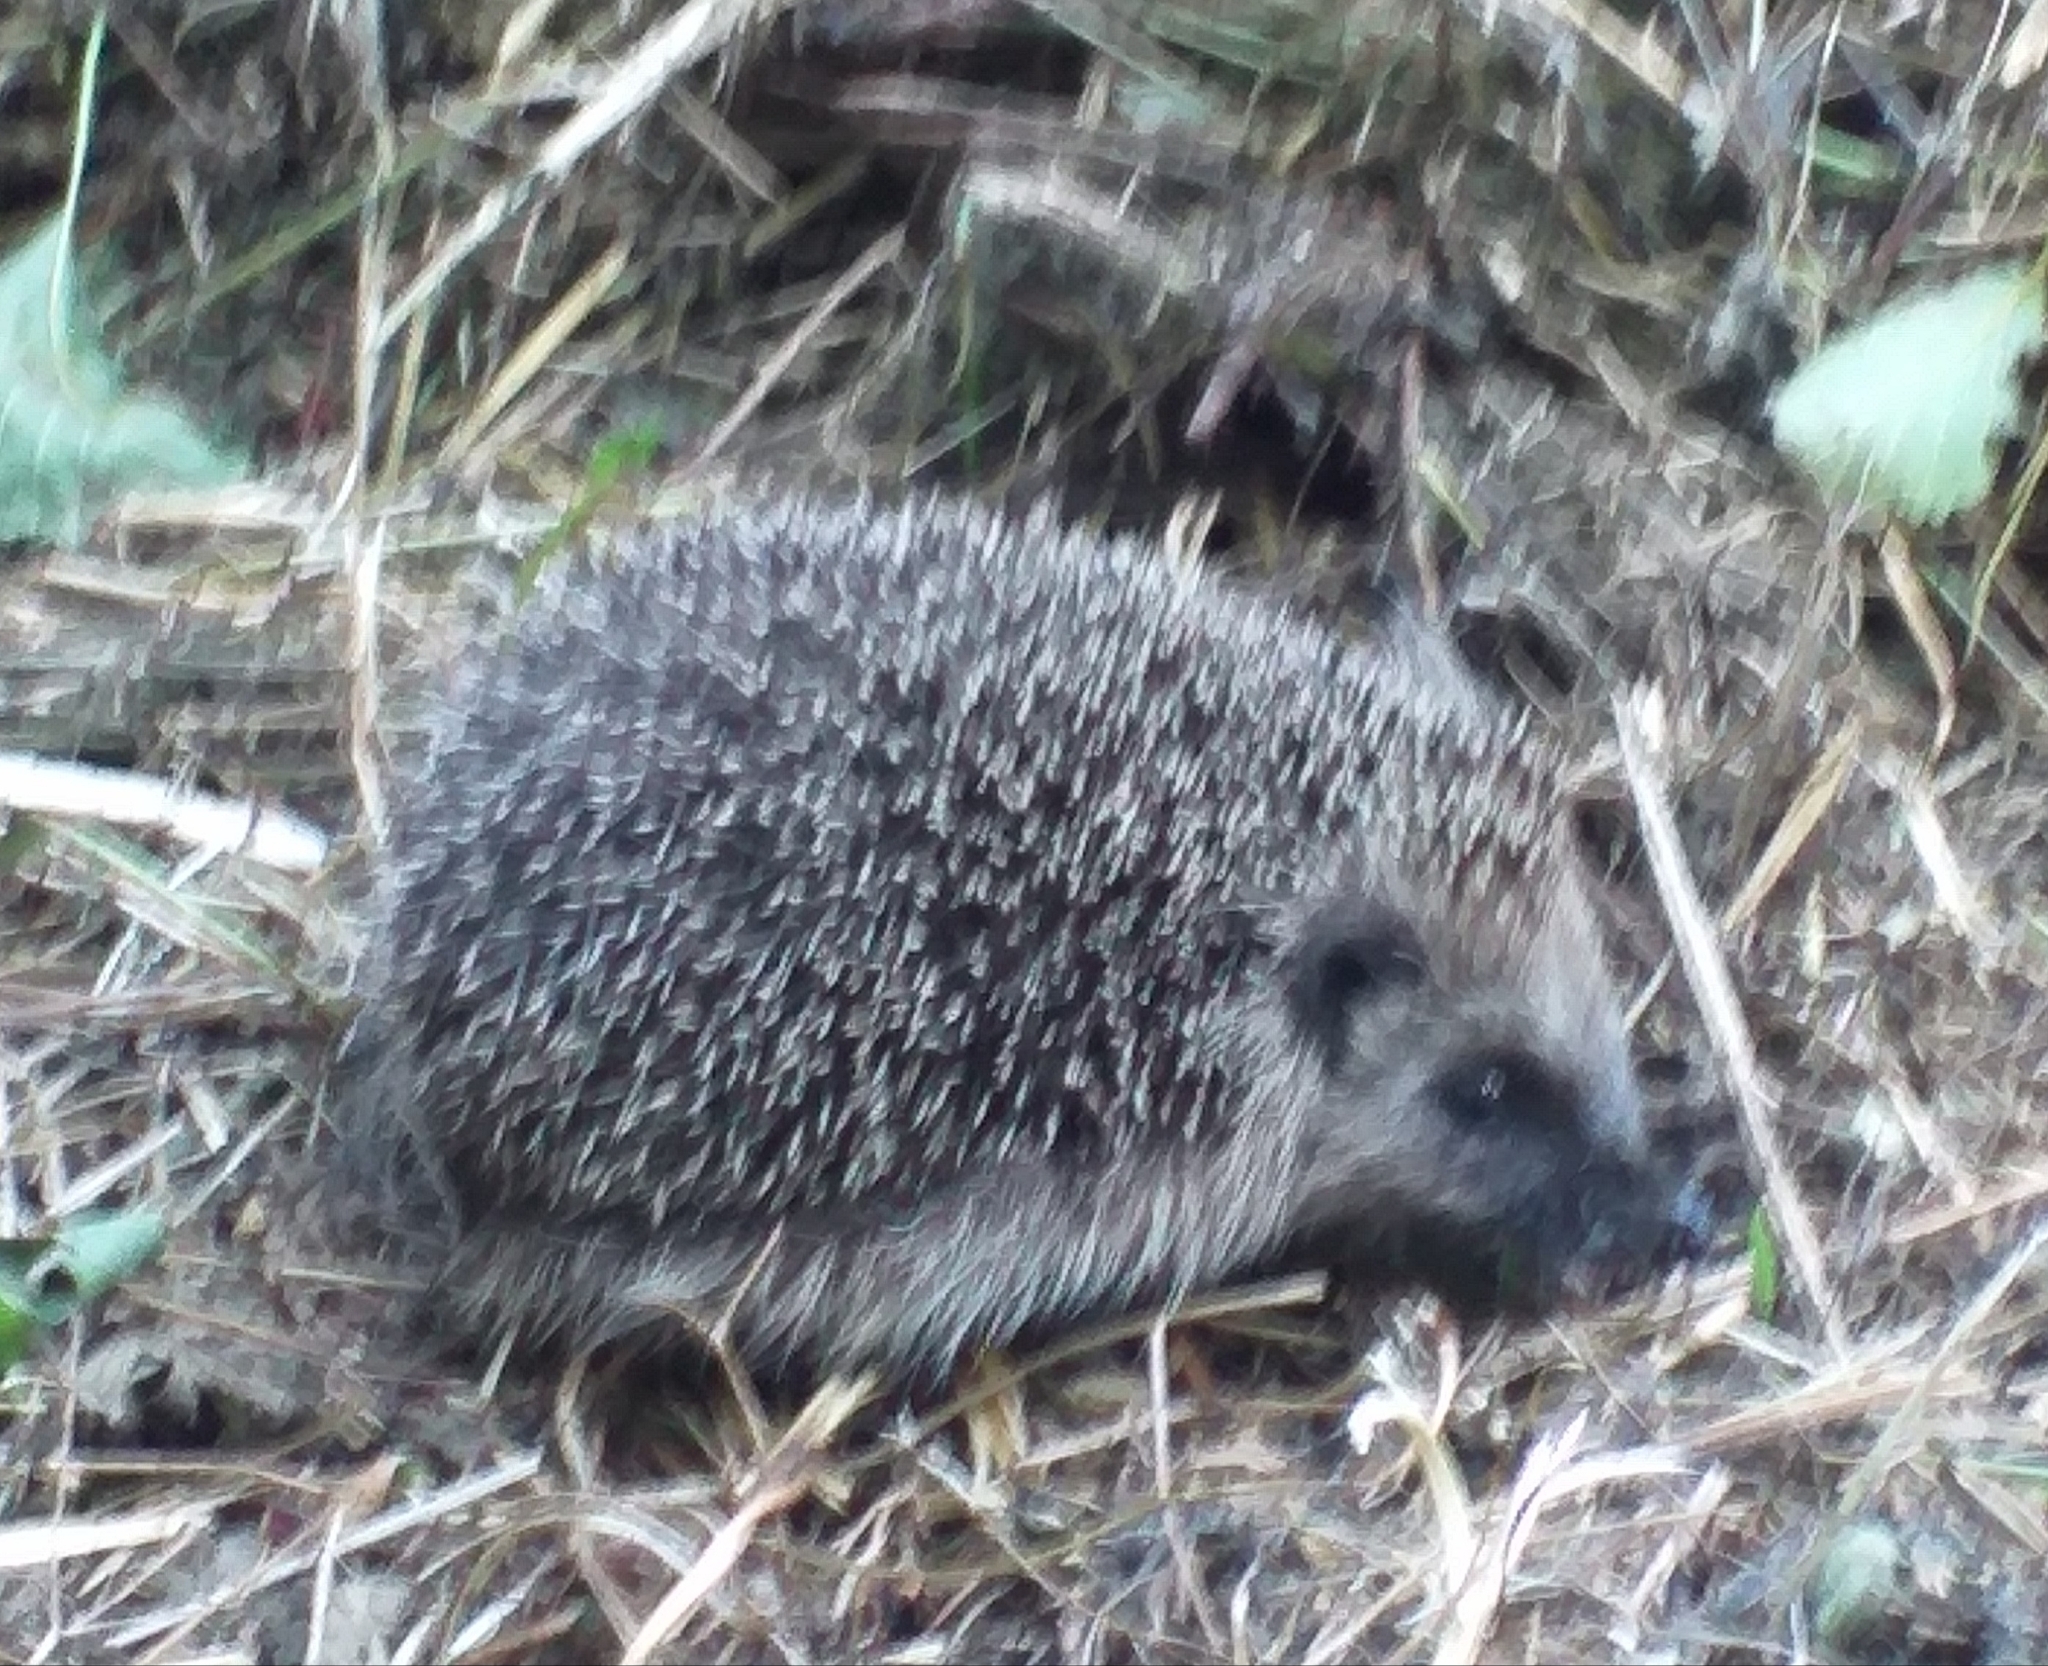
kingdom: Animalia
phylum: Chordata
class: Mammalia
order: Erinaceomorpha
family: Erinaceidae
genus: Erinaceus
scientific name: Erinaceus europaeus
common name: West european hedgehog
